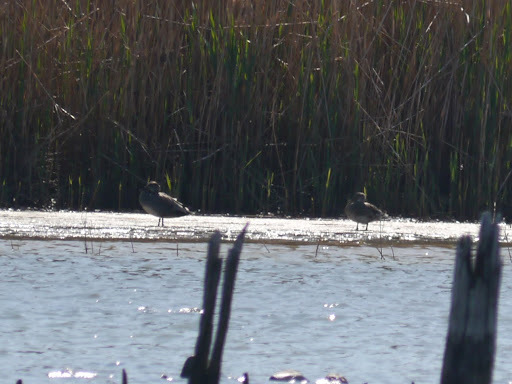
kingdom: Animalia
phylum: Chordata
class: Aves
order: Anseriformes
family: Anatidae
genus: Mareca
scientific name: Mareca strepera
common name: Gadwall
